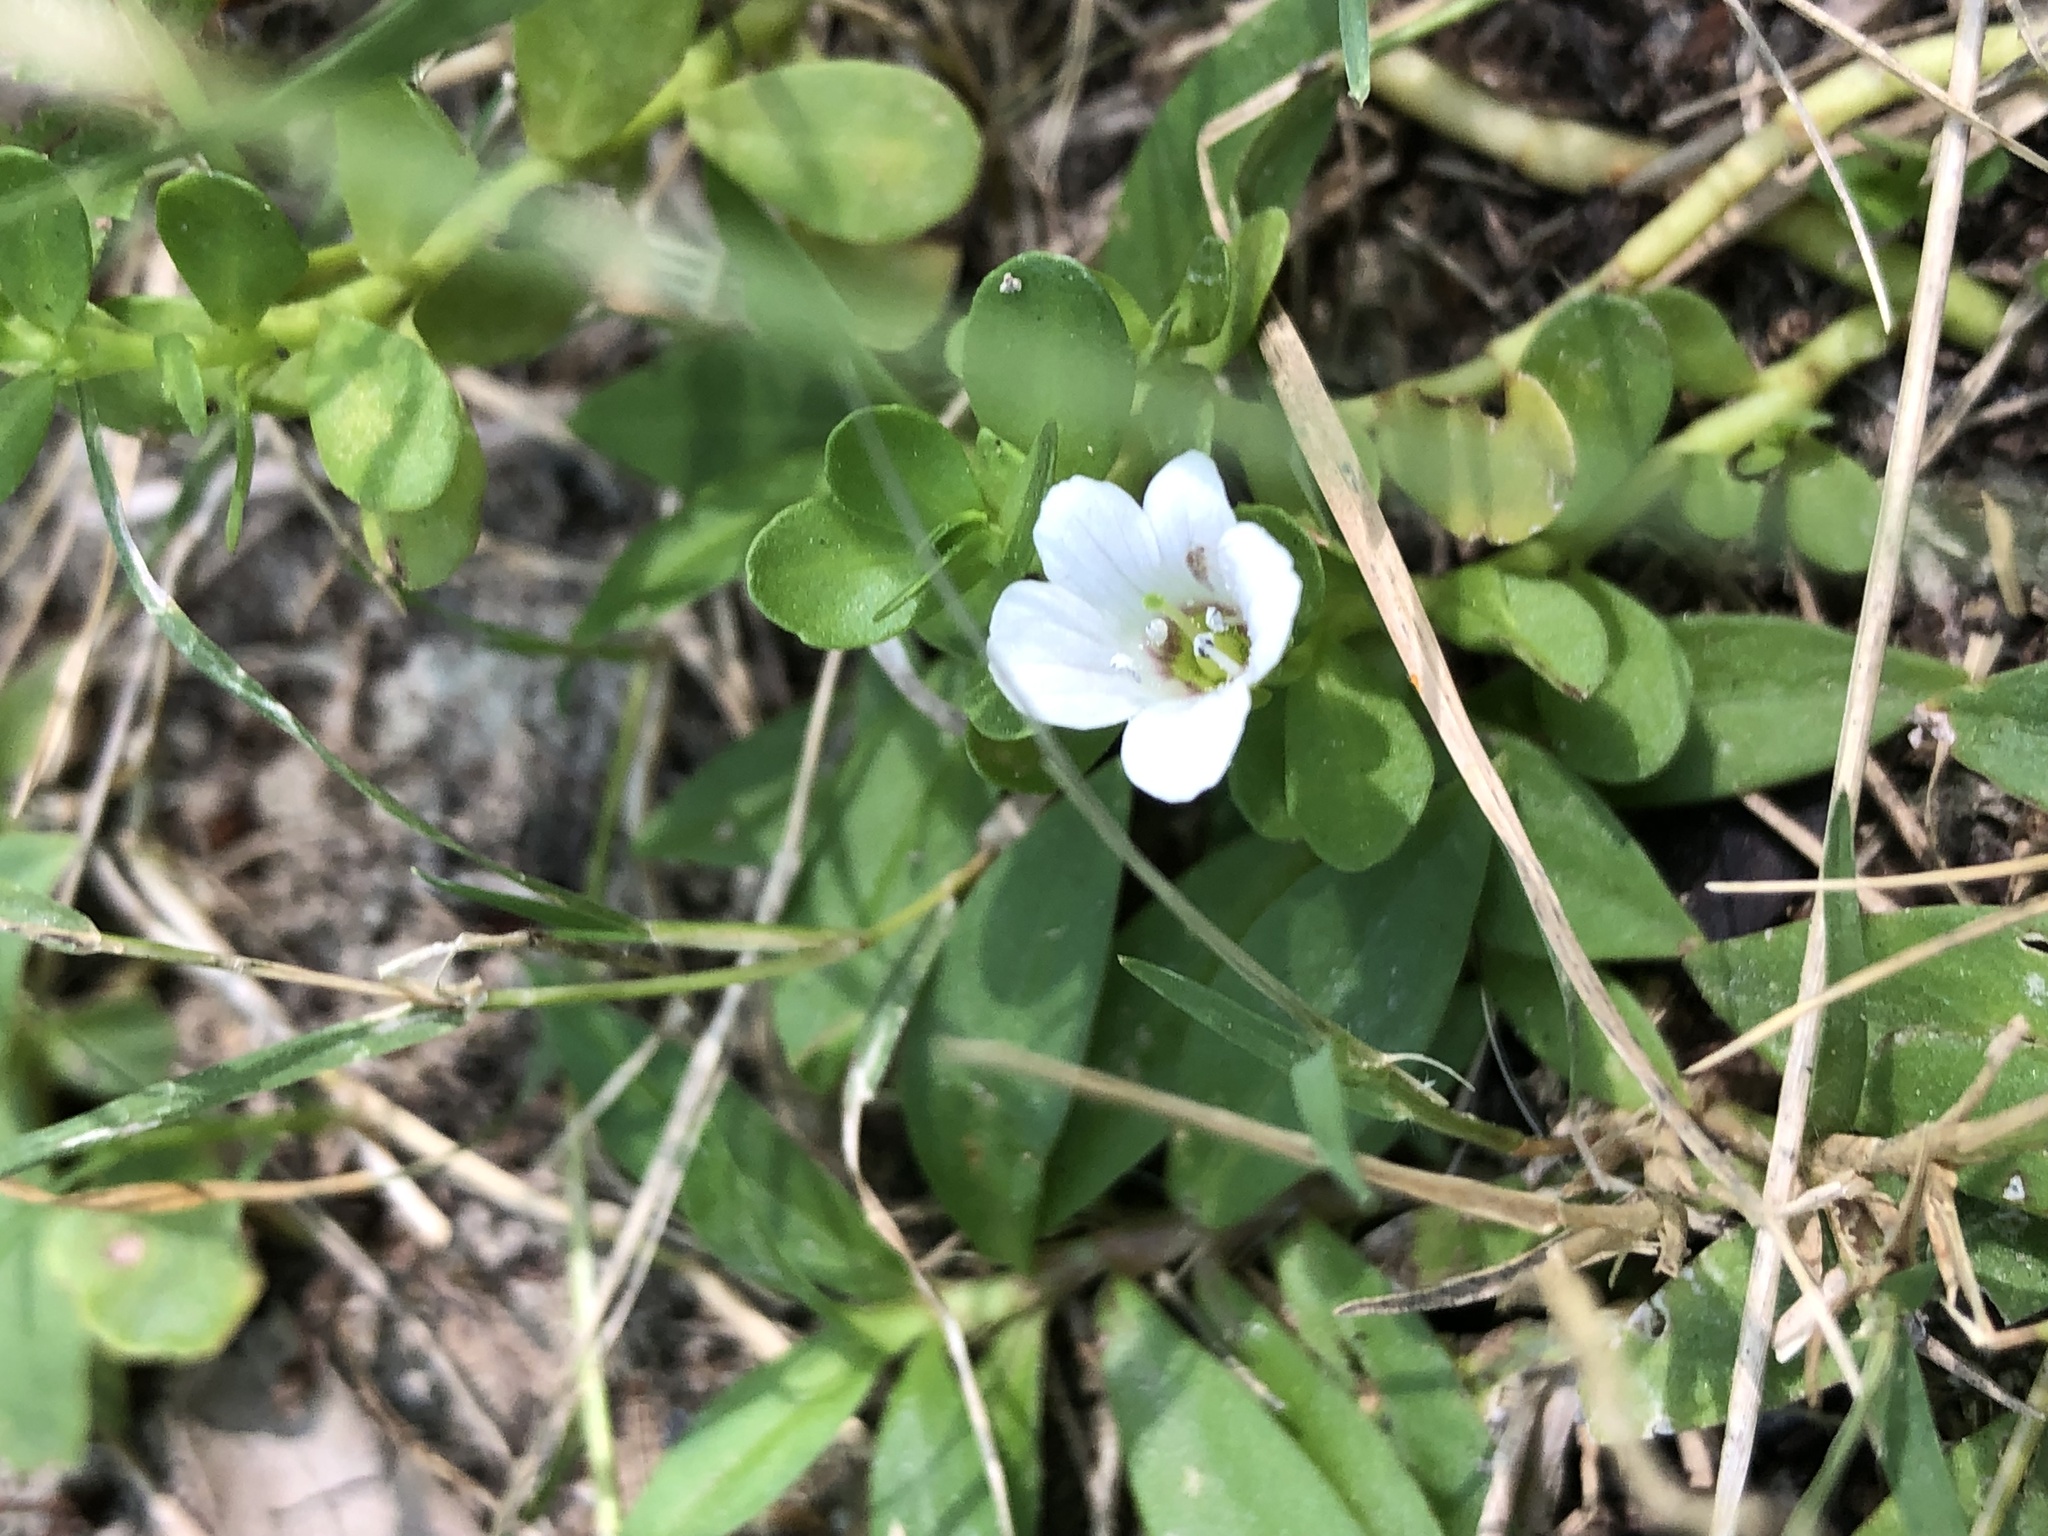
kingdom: Plantae
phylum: Tracheophyta
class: Magnoliopsida
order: Lamiales
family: Plantaginaceae
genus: Bacopa
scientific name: Bacopa monnieri
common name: Indian-pennywort
